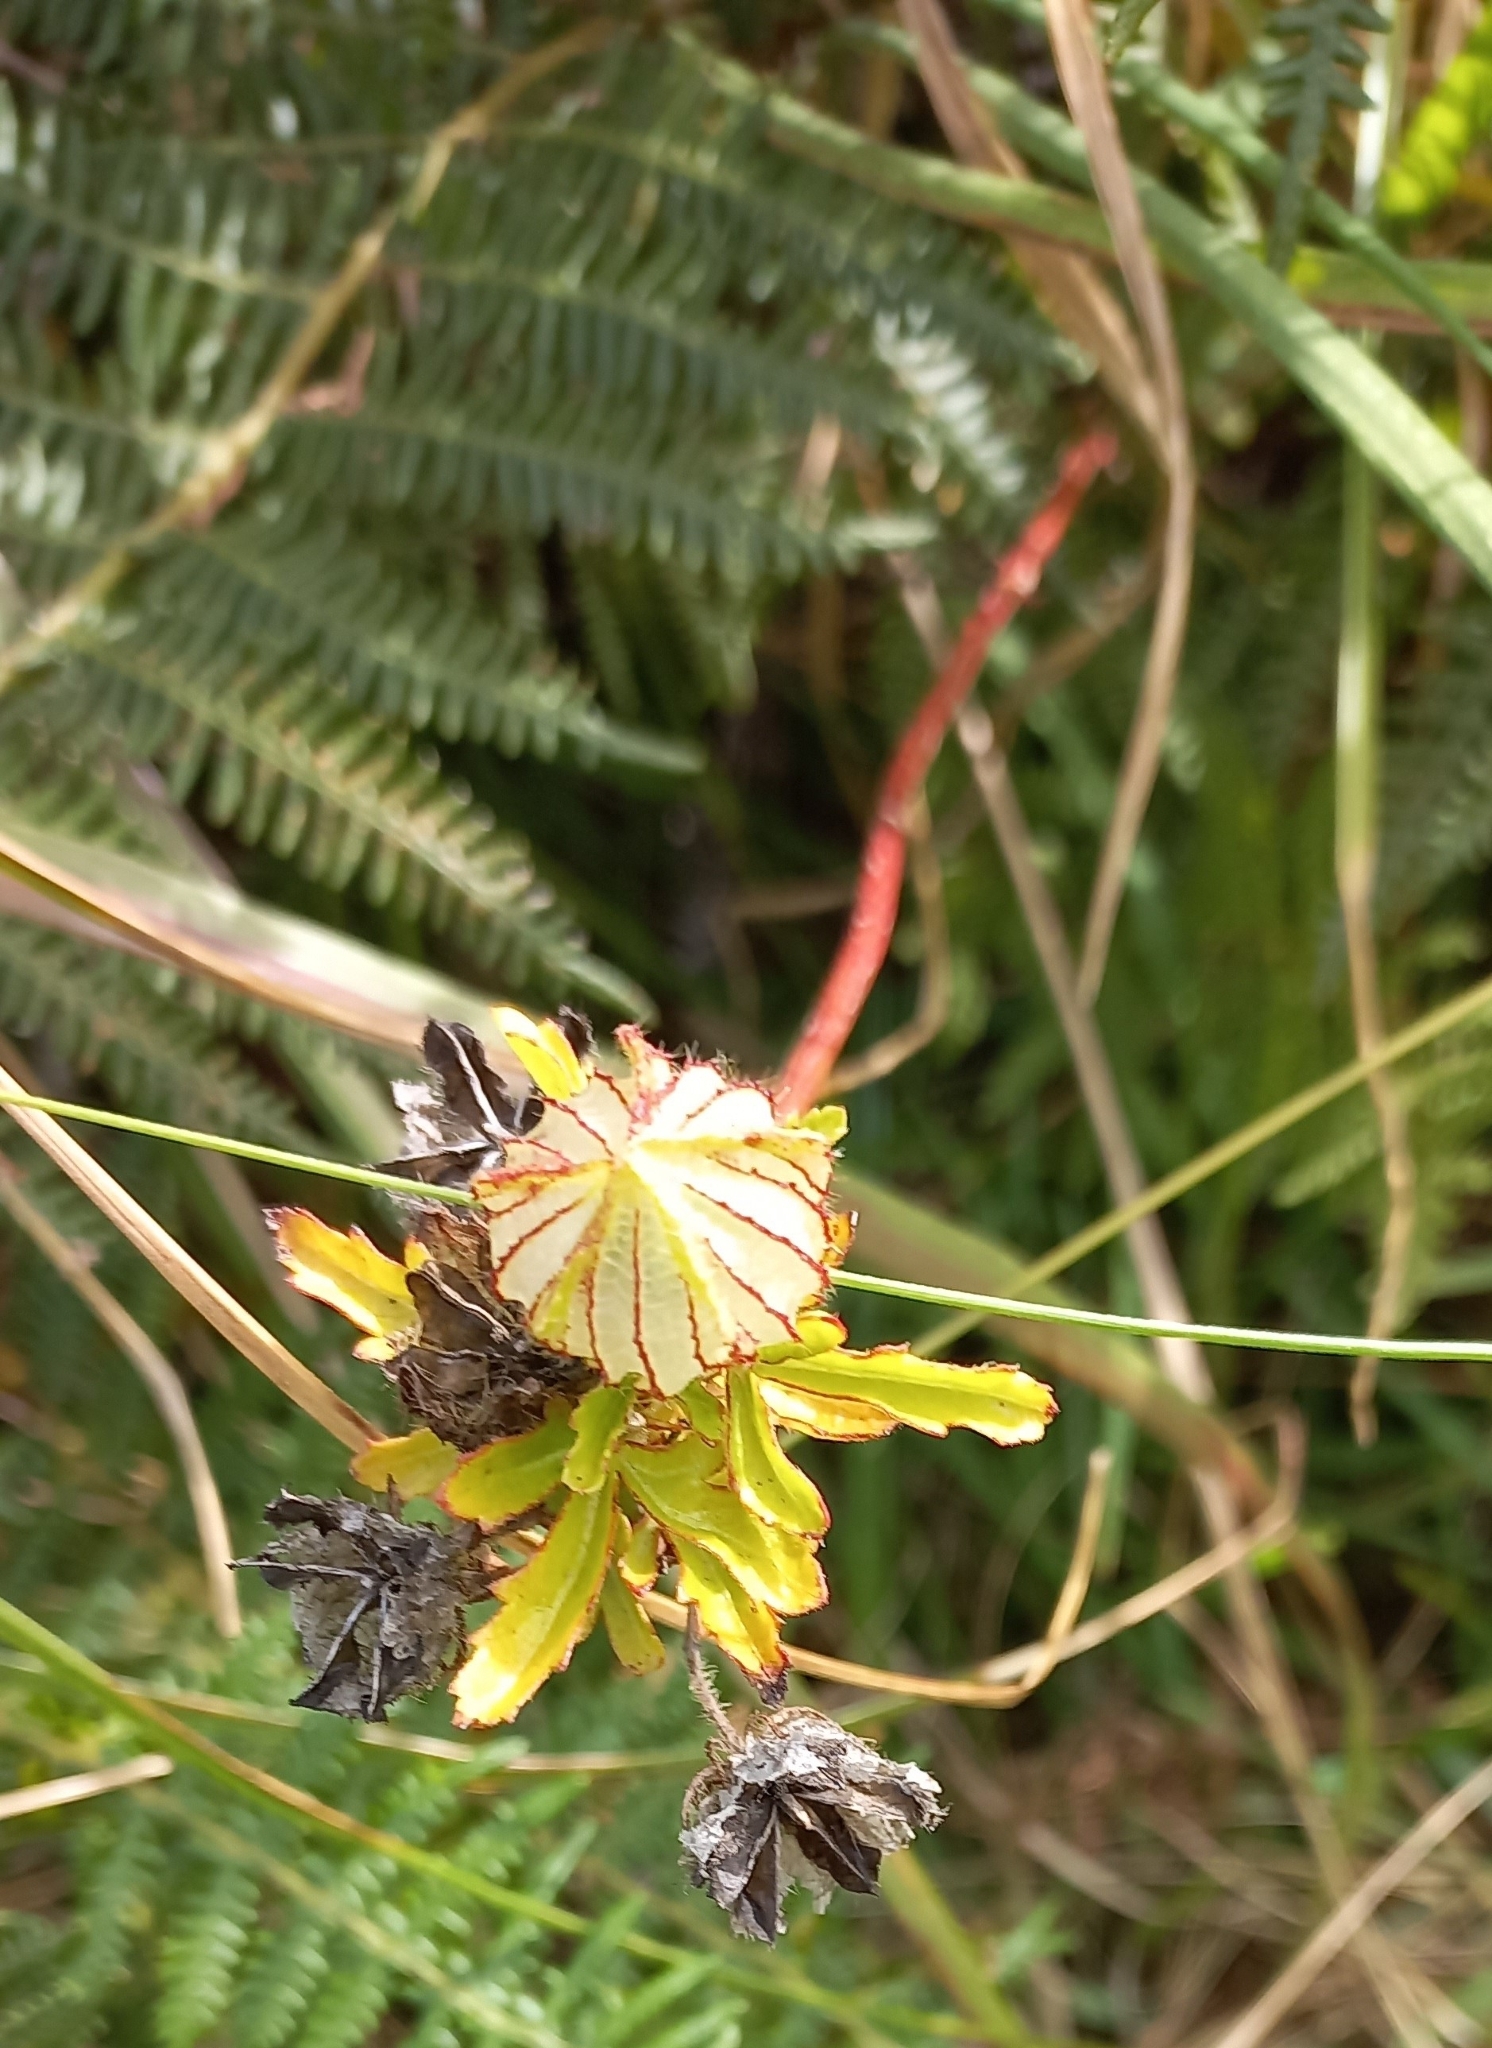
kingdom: Plantae
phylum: Tracheophyta
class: Magnoliopsida
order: Malvales
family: Malvaceae
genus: Hibiscus
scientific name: Hibiscus trionum
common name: Bladder ketmia
